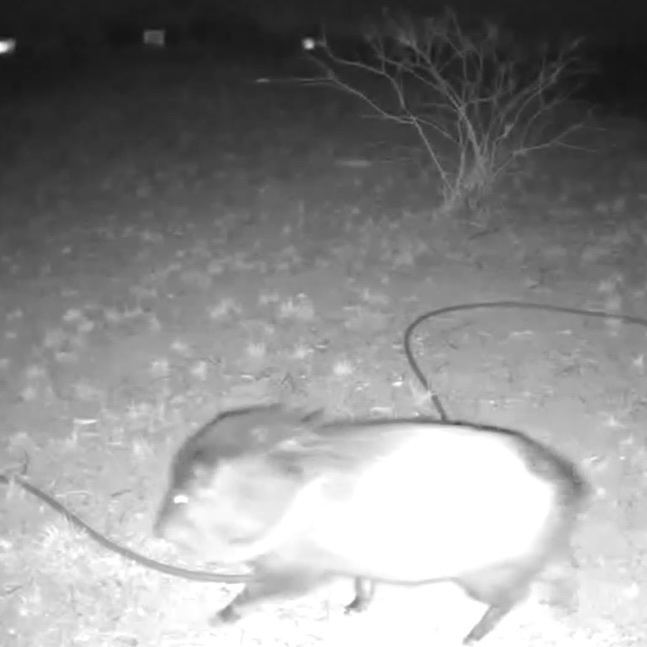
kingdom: Animalia
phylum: Chordata
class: Mammalia
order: Artiodactyla
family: Tayassuidae
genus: Pecari
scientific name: Pecari tajacu
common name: Collared peccary
